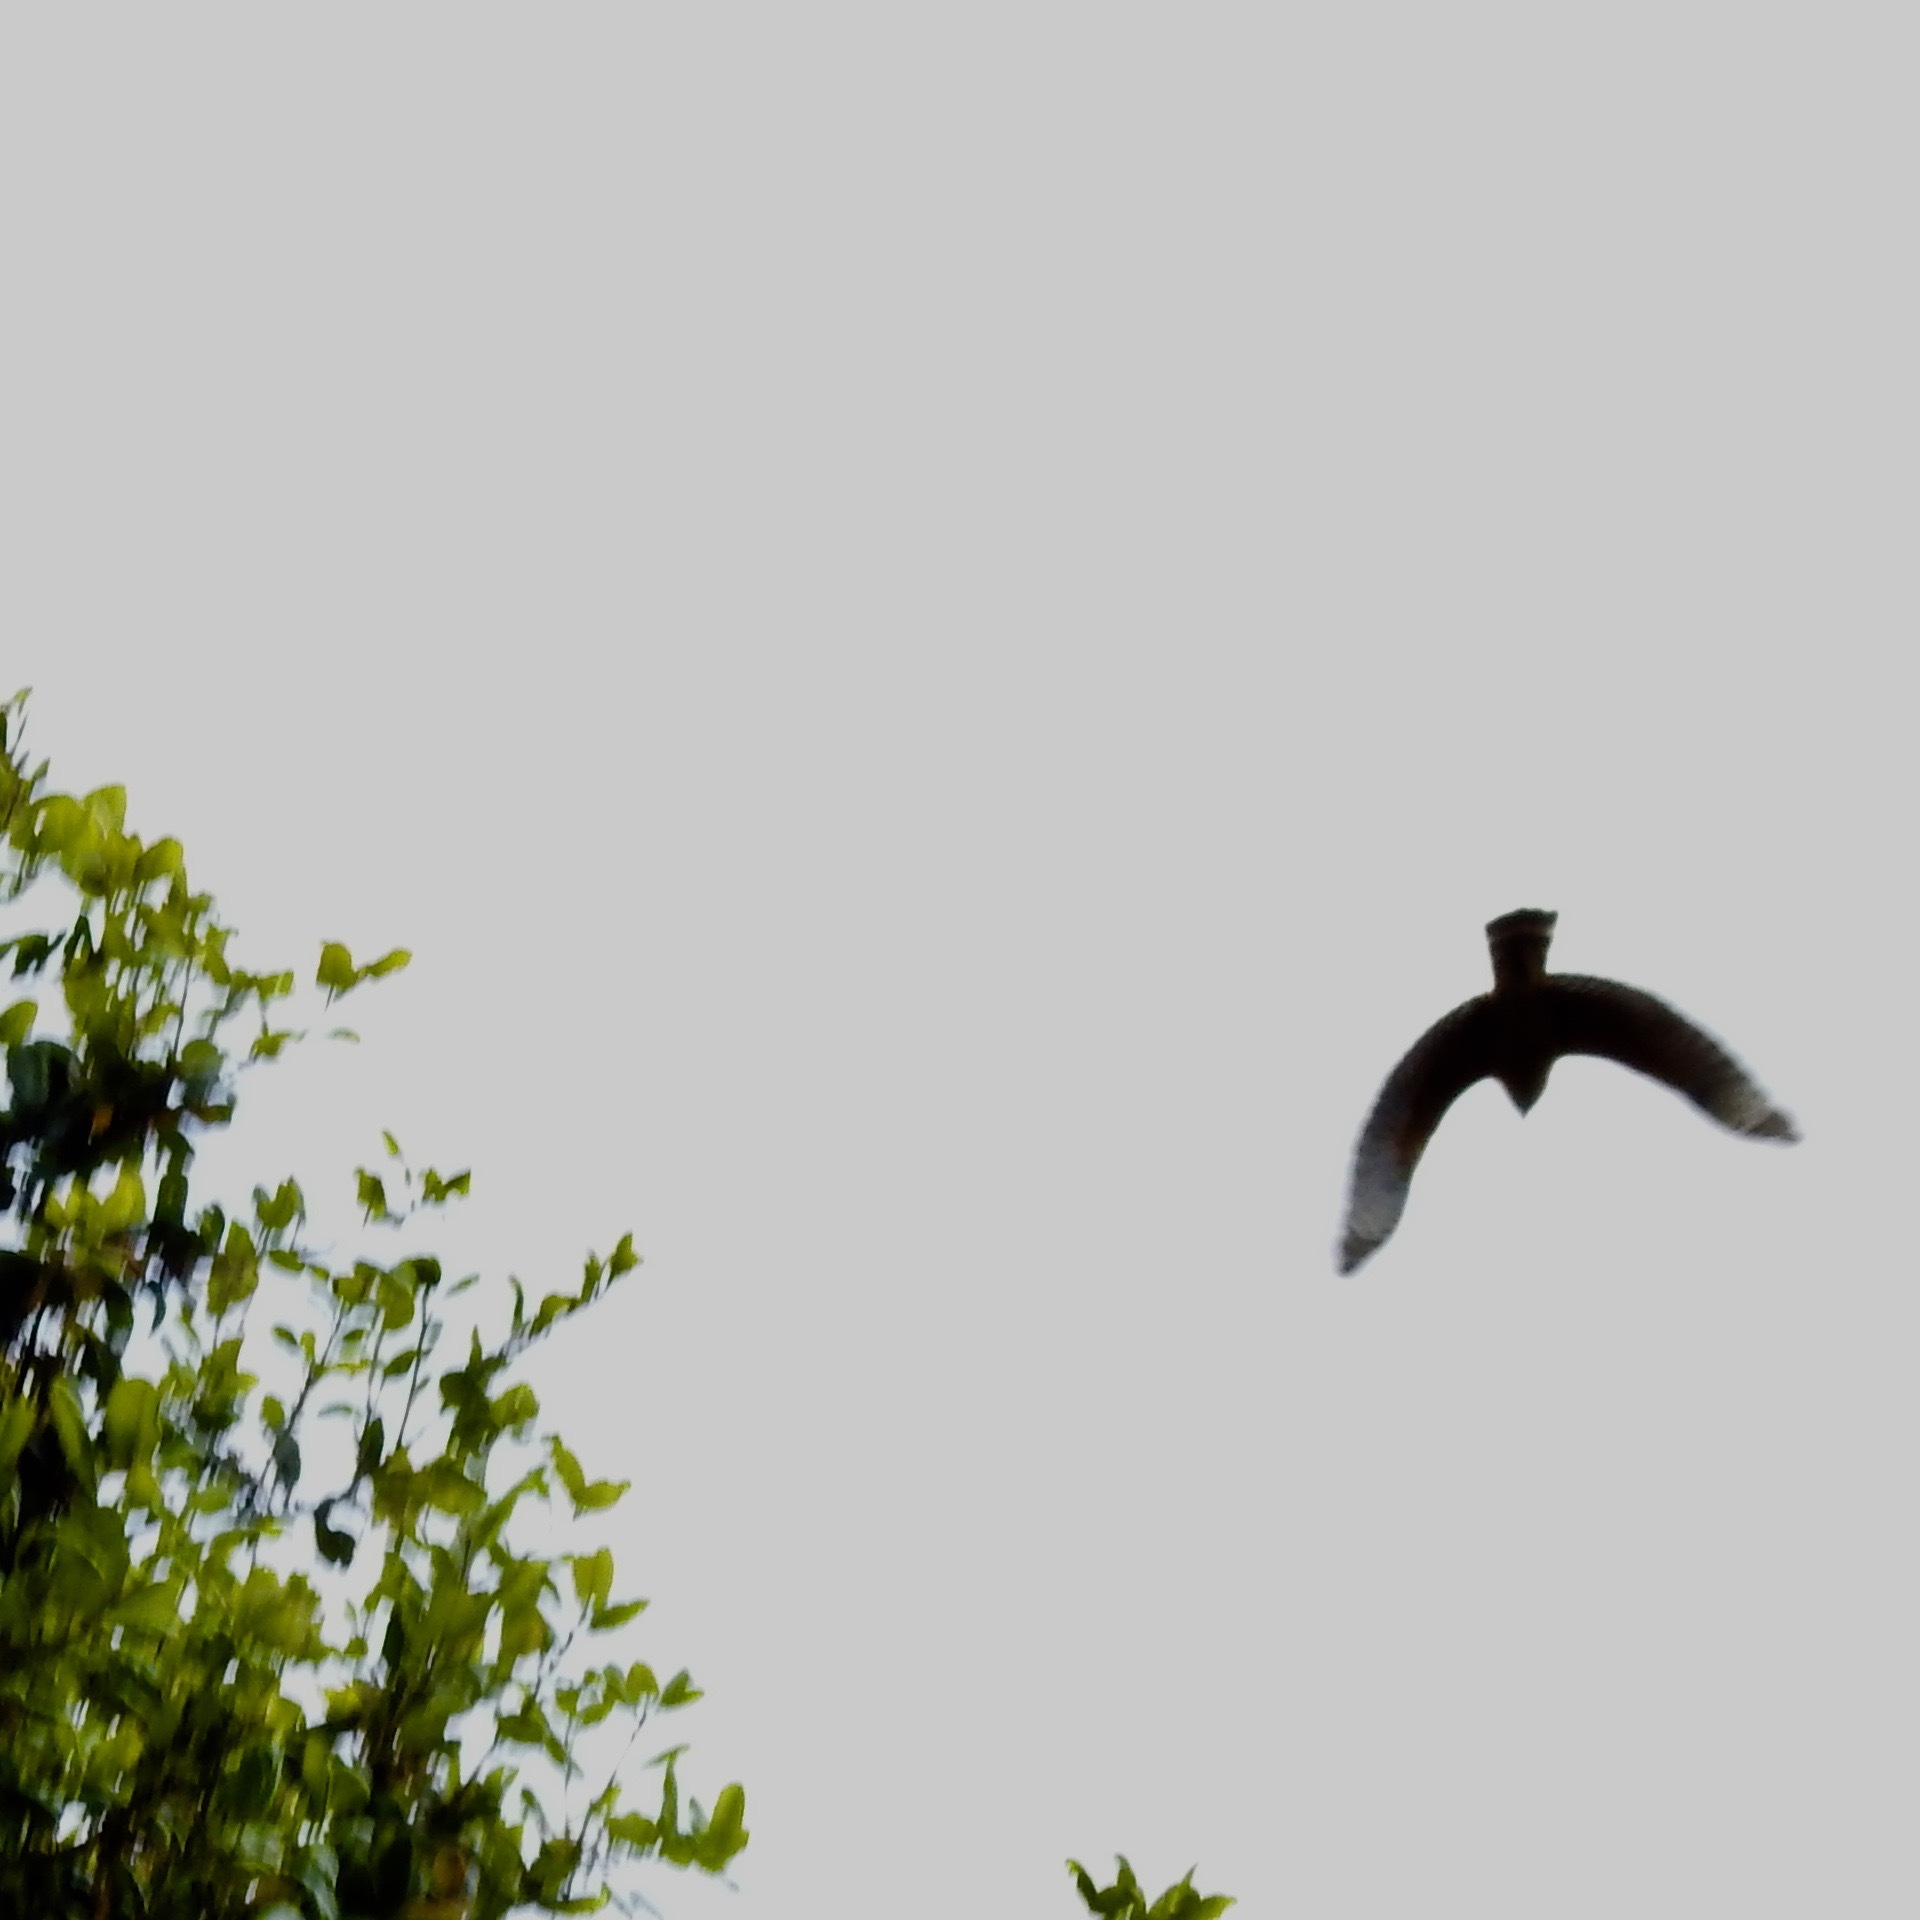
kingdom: Animalia
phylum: Chordata
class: Aves
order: Accipitriformes
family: Accipitridae
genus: Buteo
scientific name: Buteo lineatus
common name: Red-shouldered hawk
